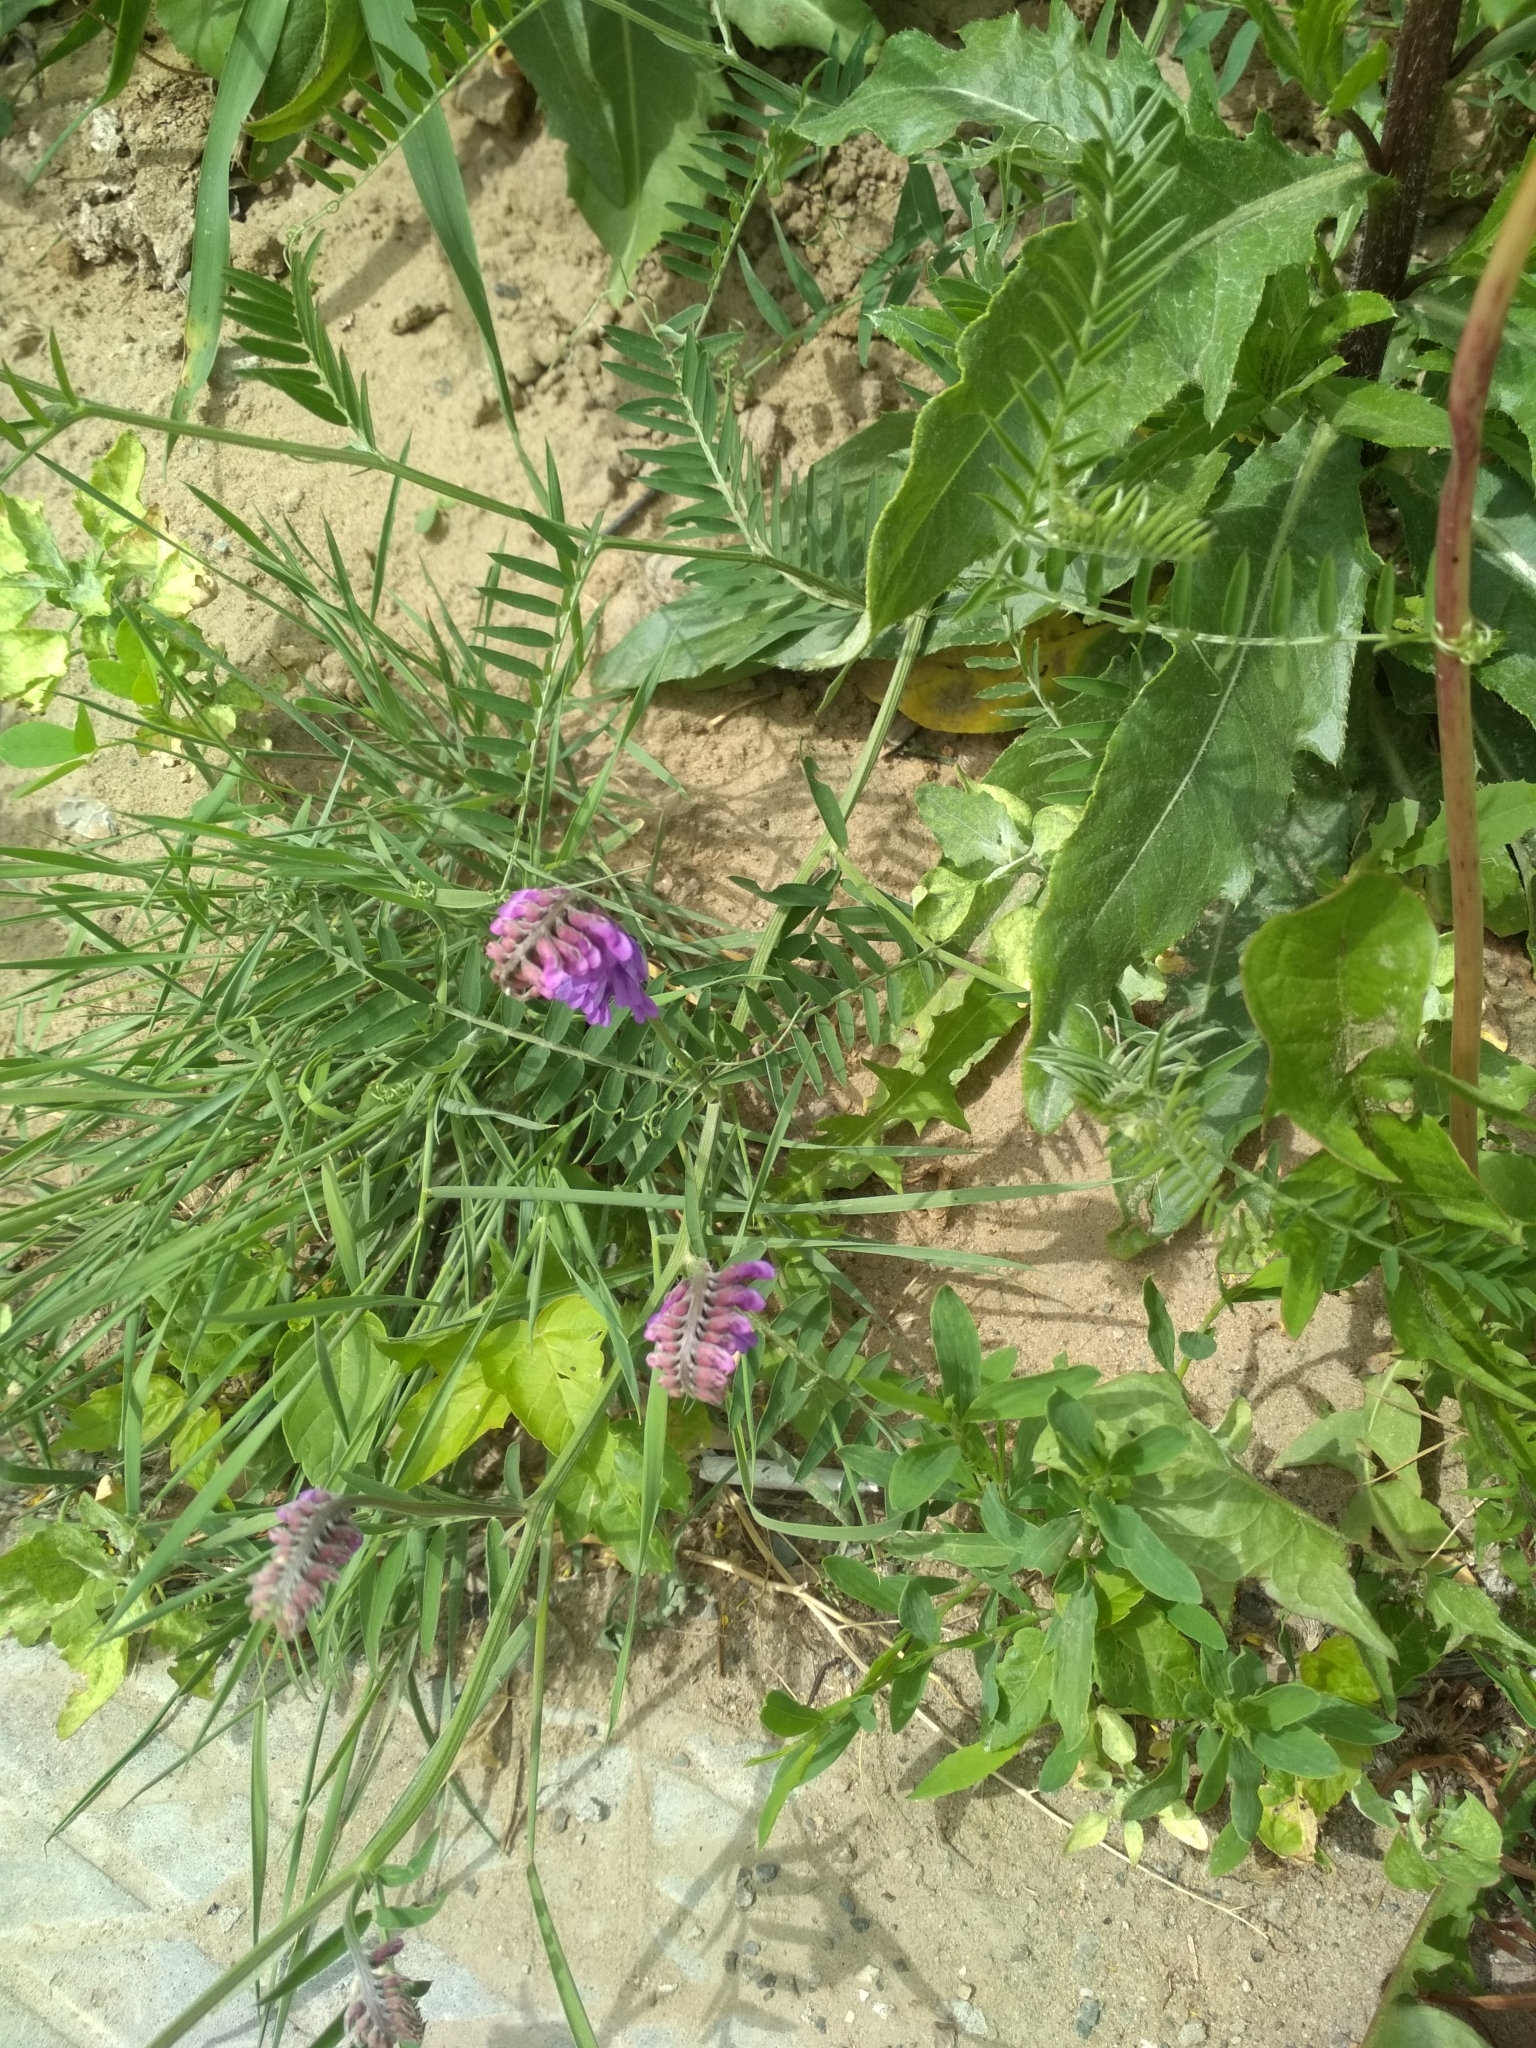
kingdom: Plantae
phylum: Tracheophyta
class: Magnoliopsida
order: Fabales
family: Fabaceae
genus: Vicia
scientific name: Vicia cracca
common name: Bird vetch
